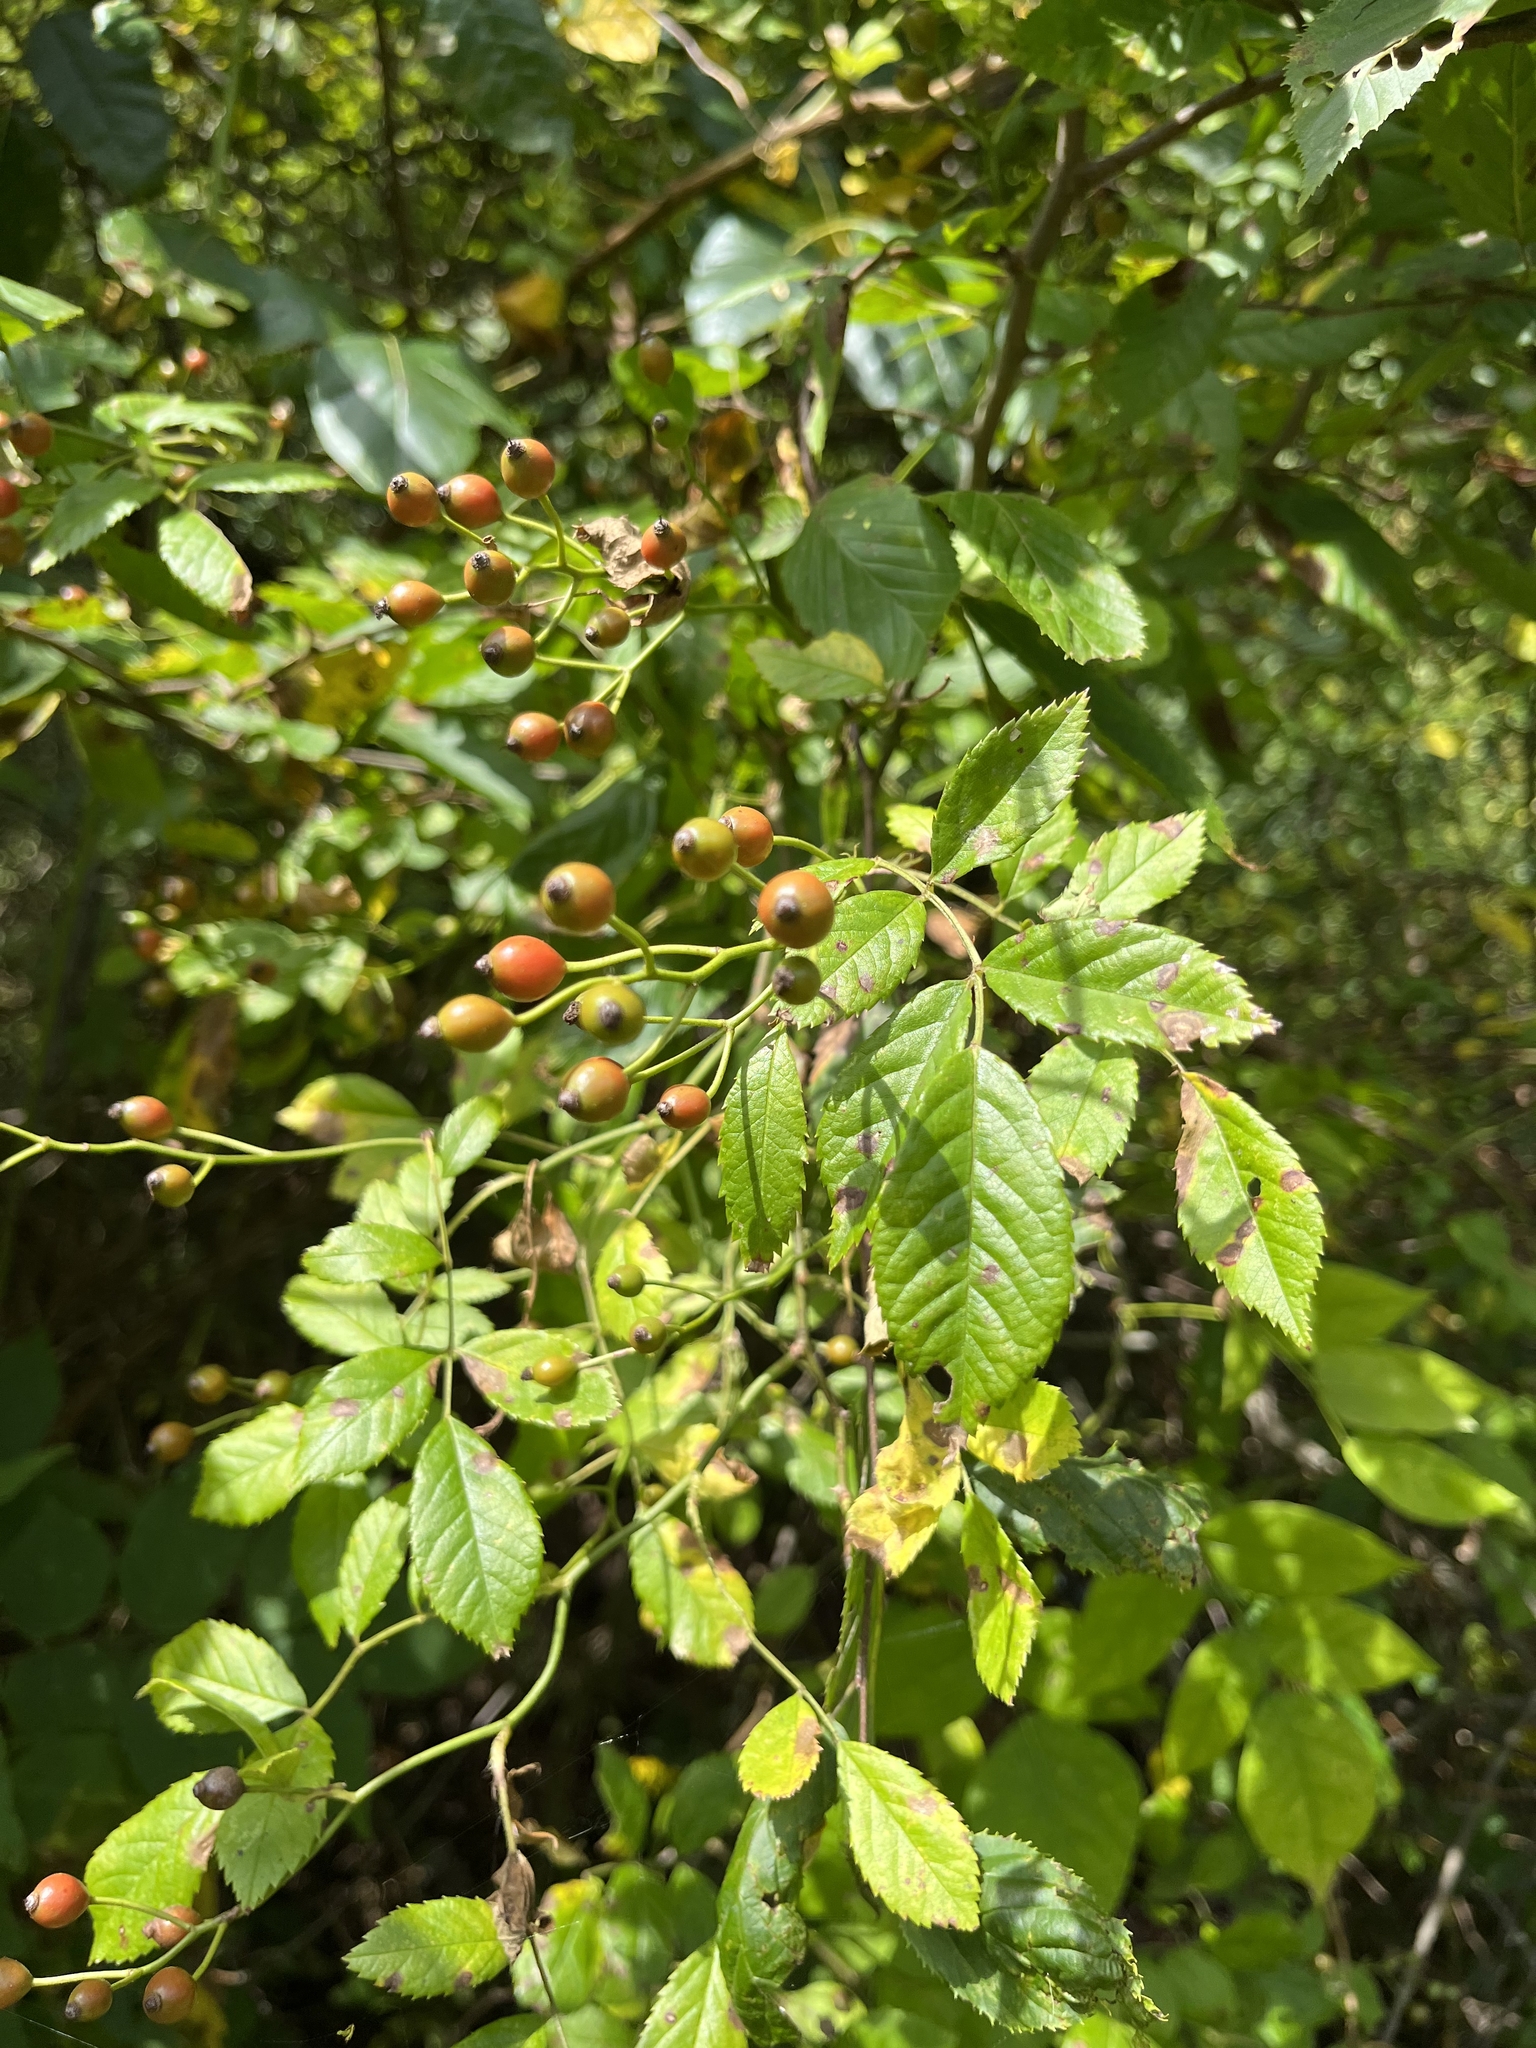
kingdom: Plantae
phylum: Tracheophyta
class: Magnoliopsida
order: Rosales
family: Rosaceae
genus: Rosa
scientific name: Rosa multiflora
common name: Multiflora rose
